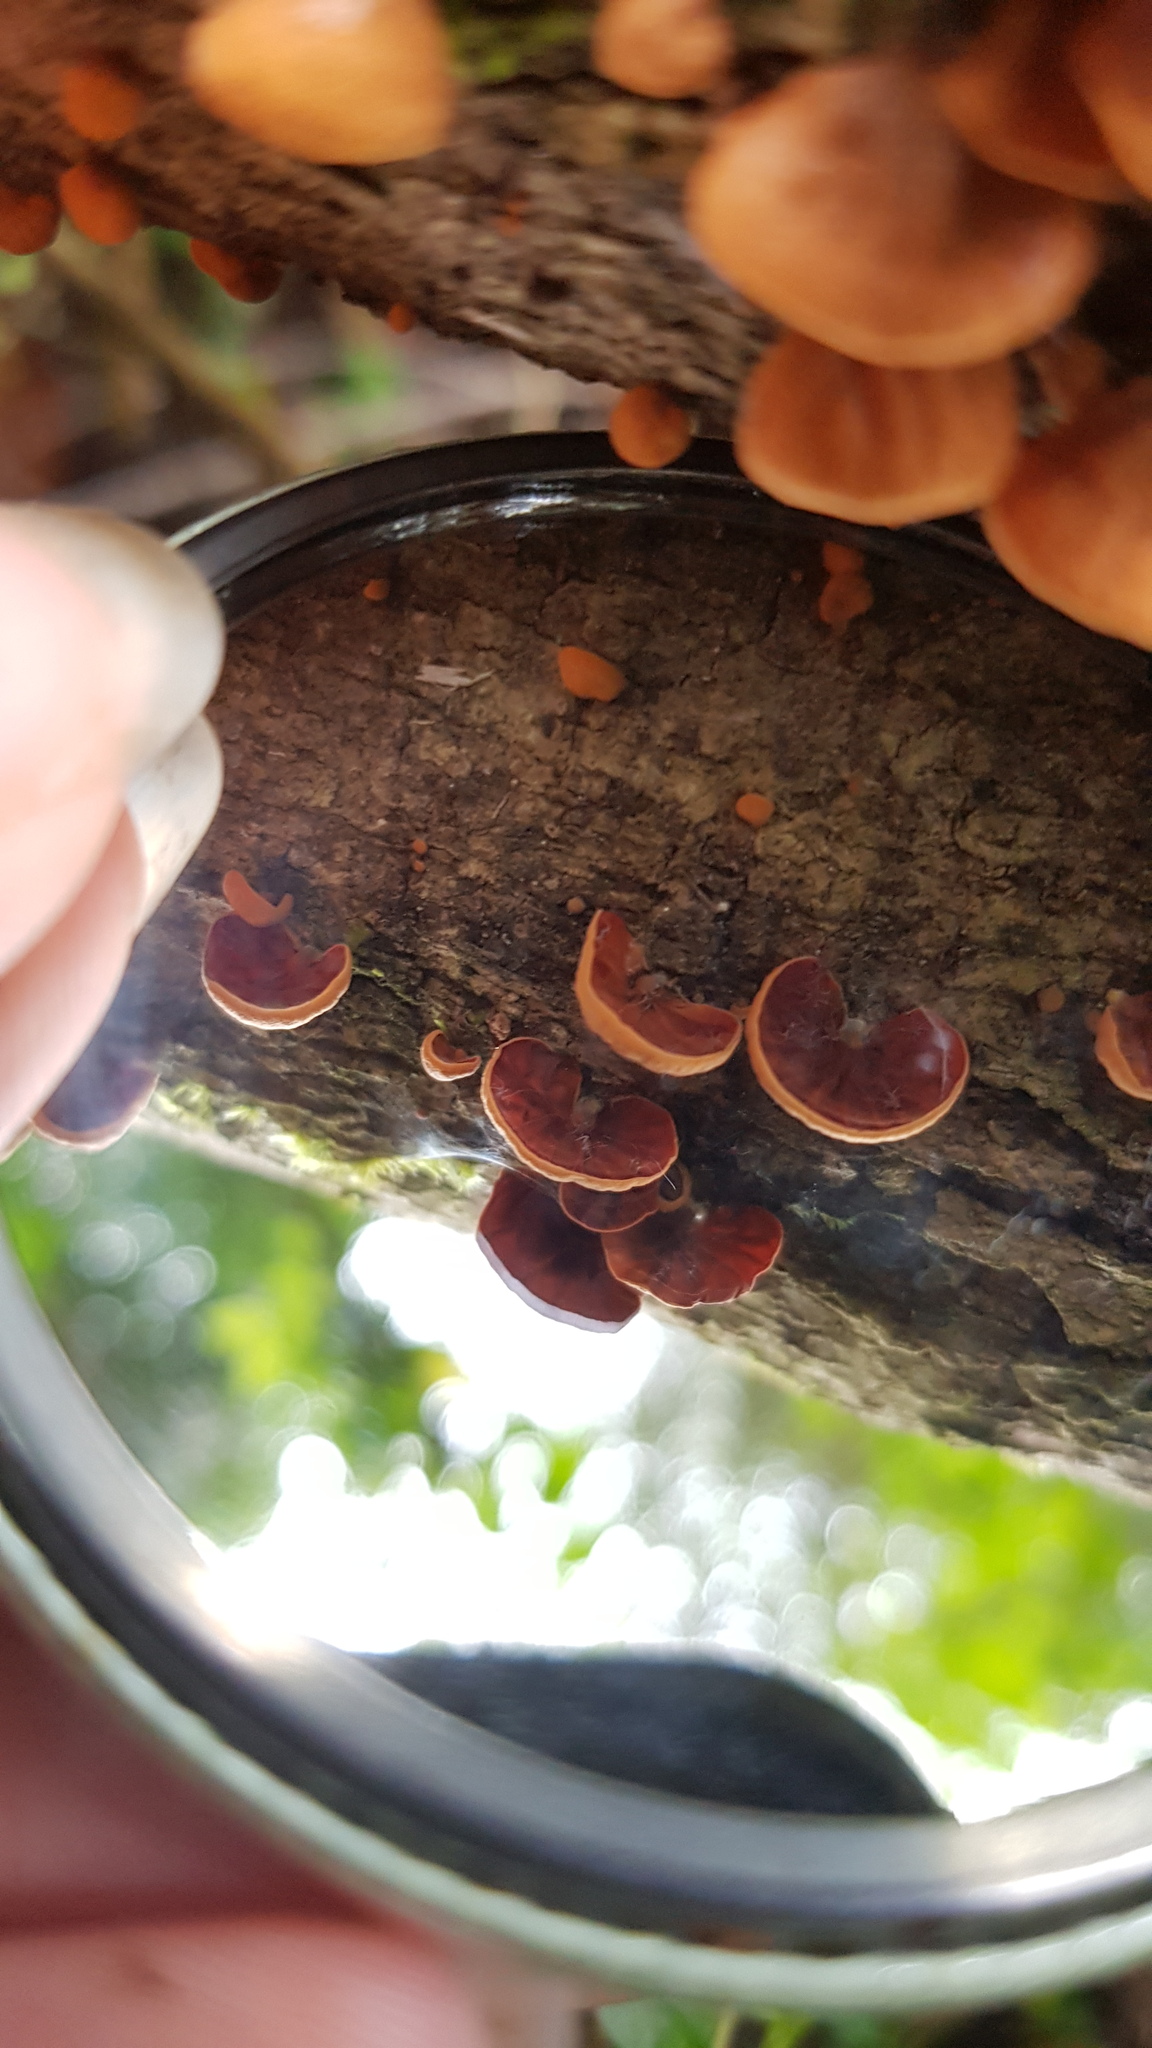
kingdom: Fungi
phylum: Basidiomycota
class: Agaricomycetes
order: Agaricales
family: Omphalotaceae
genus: Anthracophyllum
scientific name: Anthracophyllum archeri
